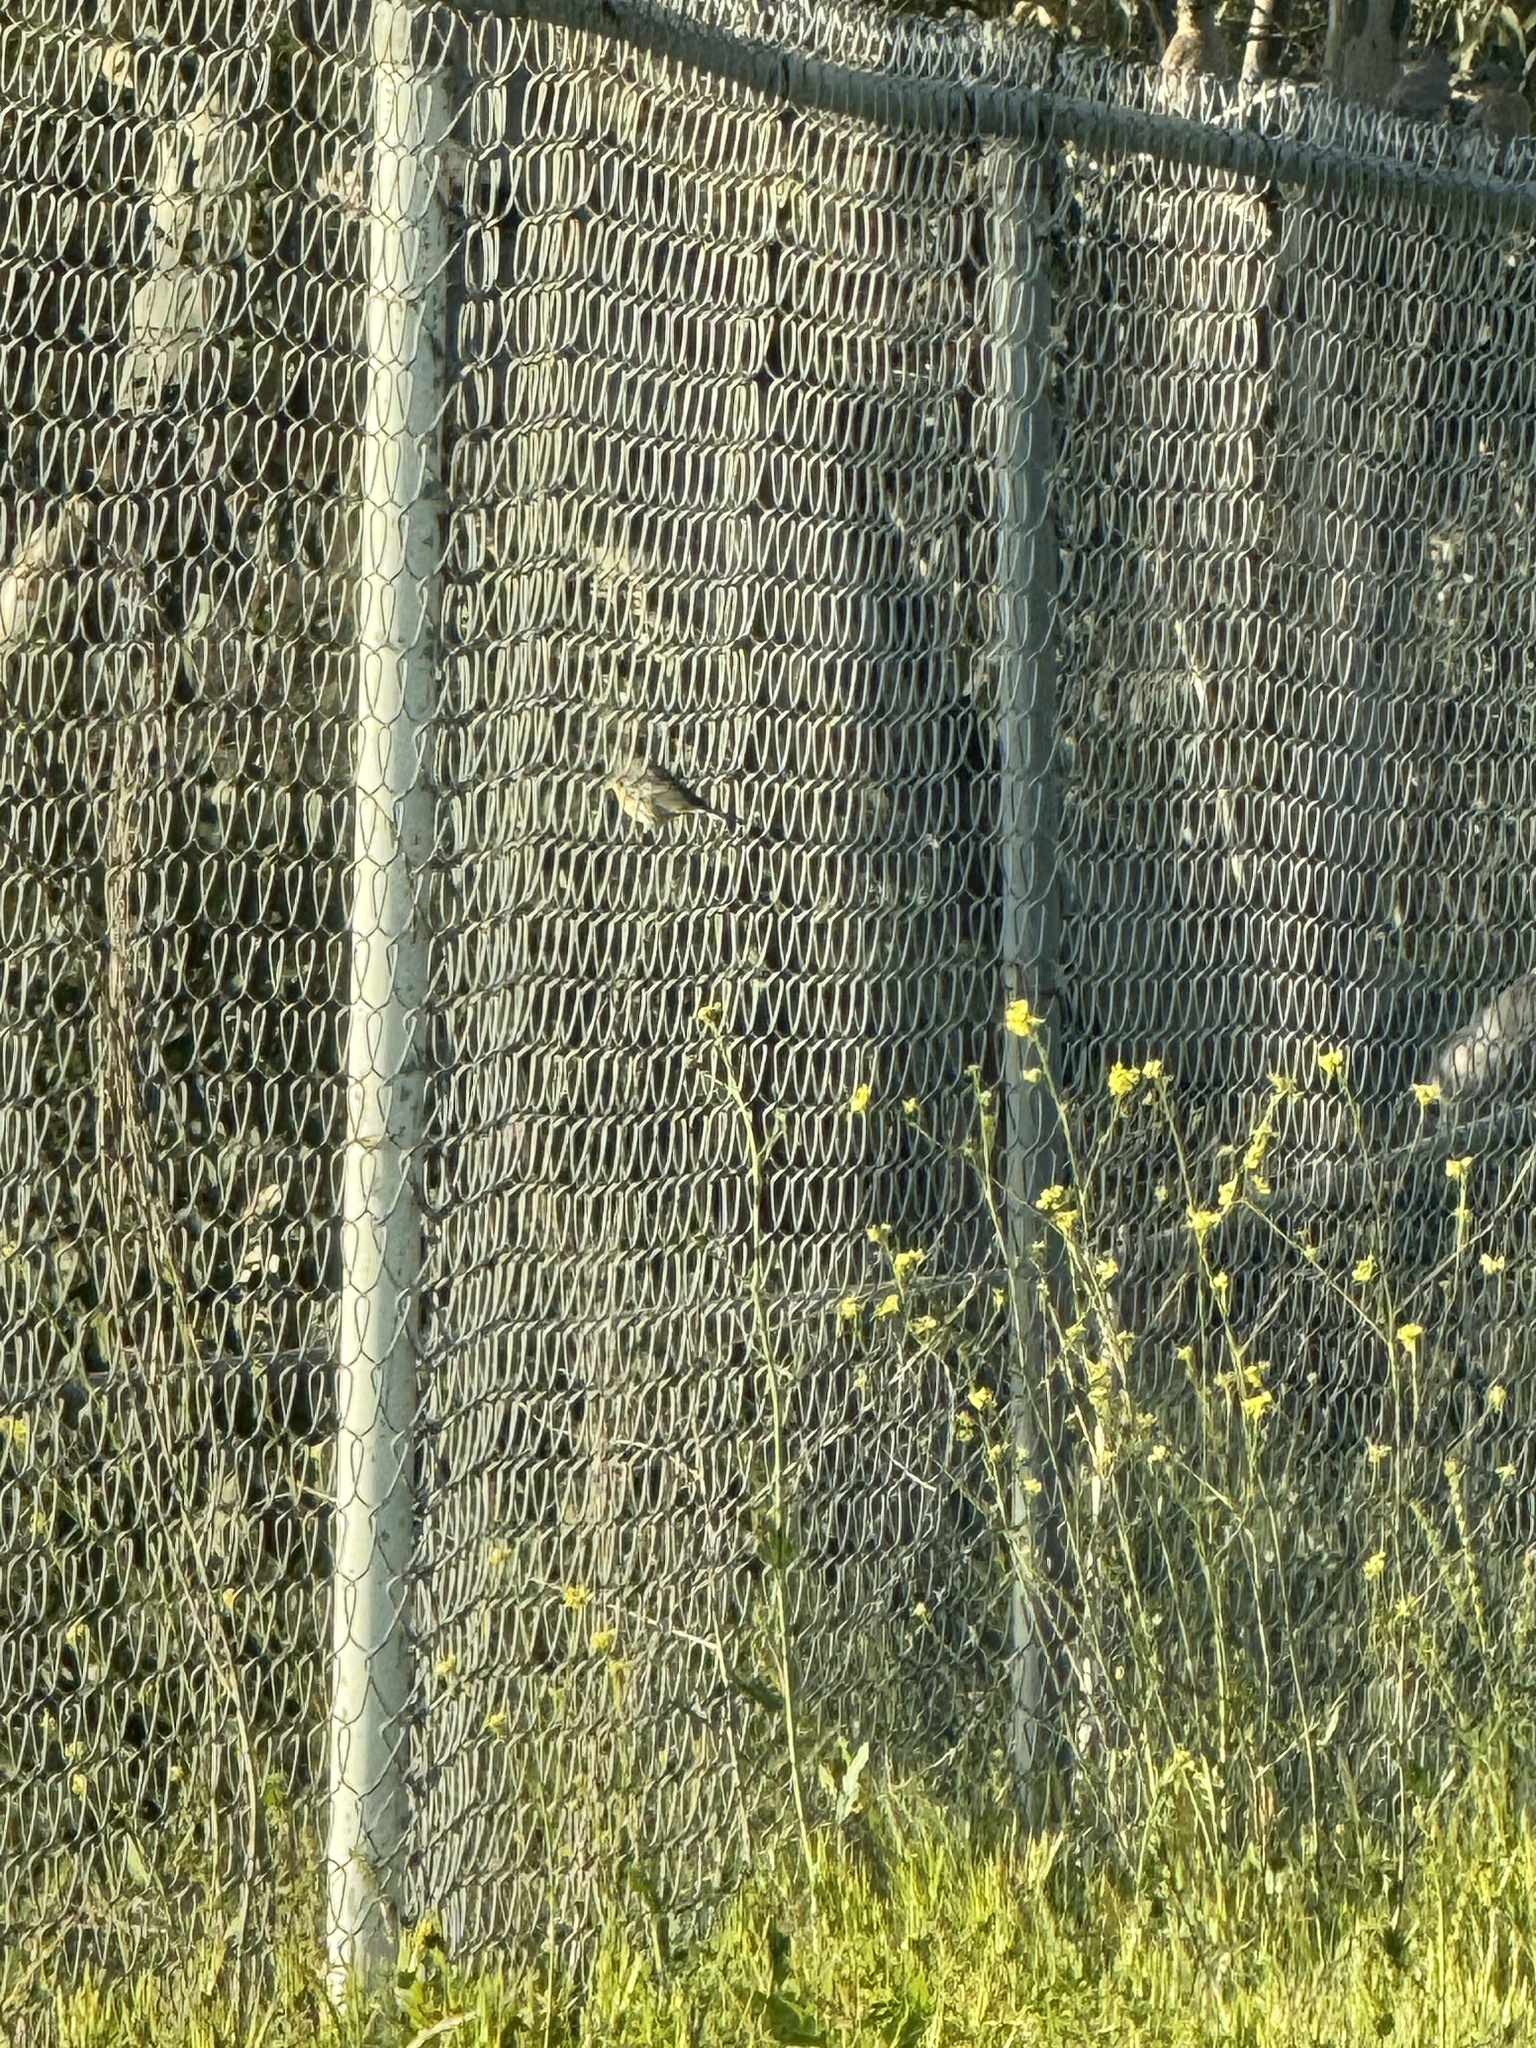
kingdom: Animalia
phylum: Chordata
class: Aves
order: Passeriformes
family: Parulidae
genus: Setophaga
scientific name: Setophaga coronata
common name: Myrtle warbler
